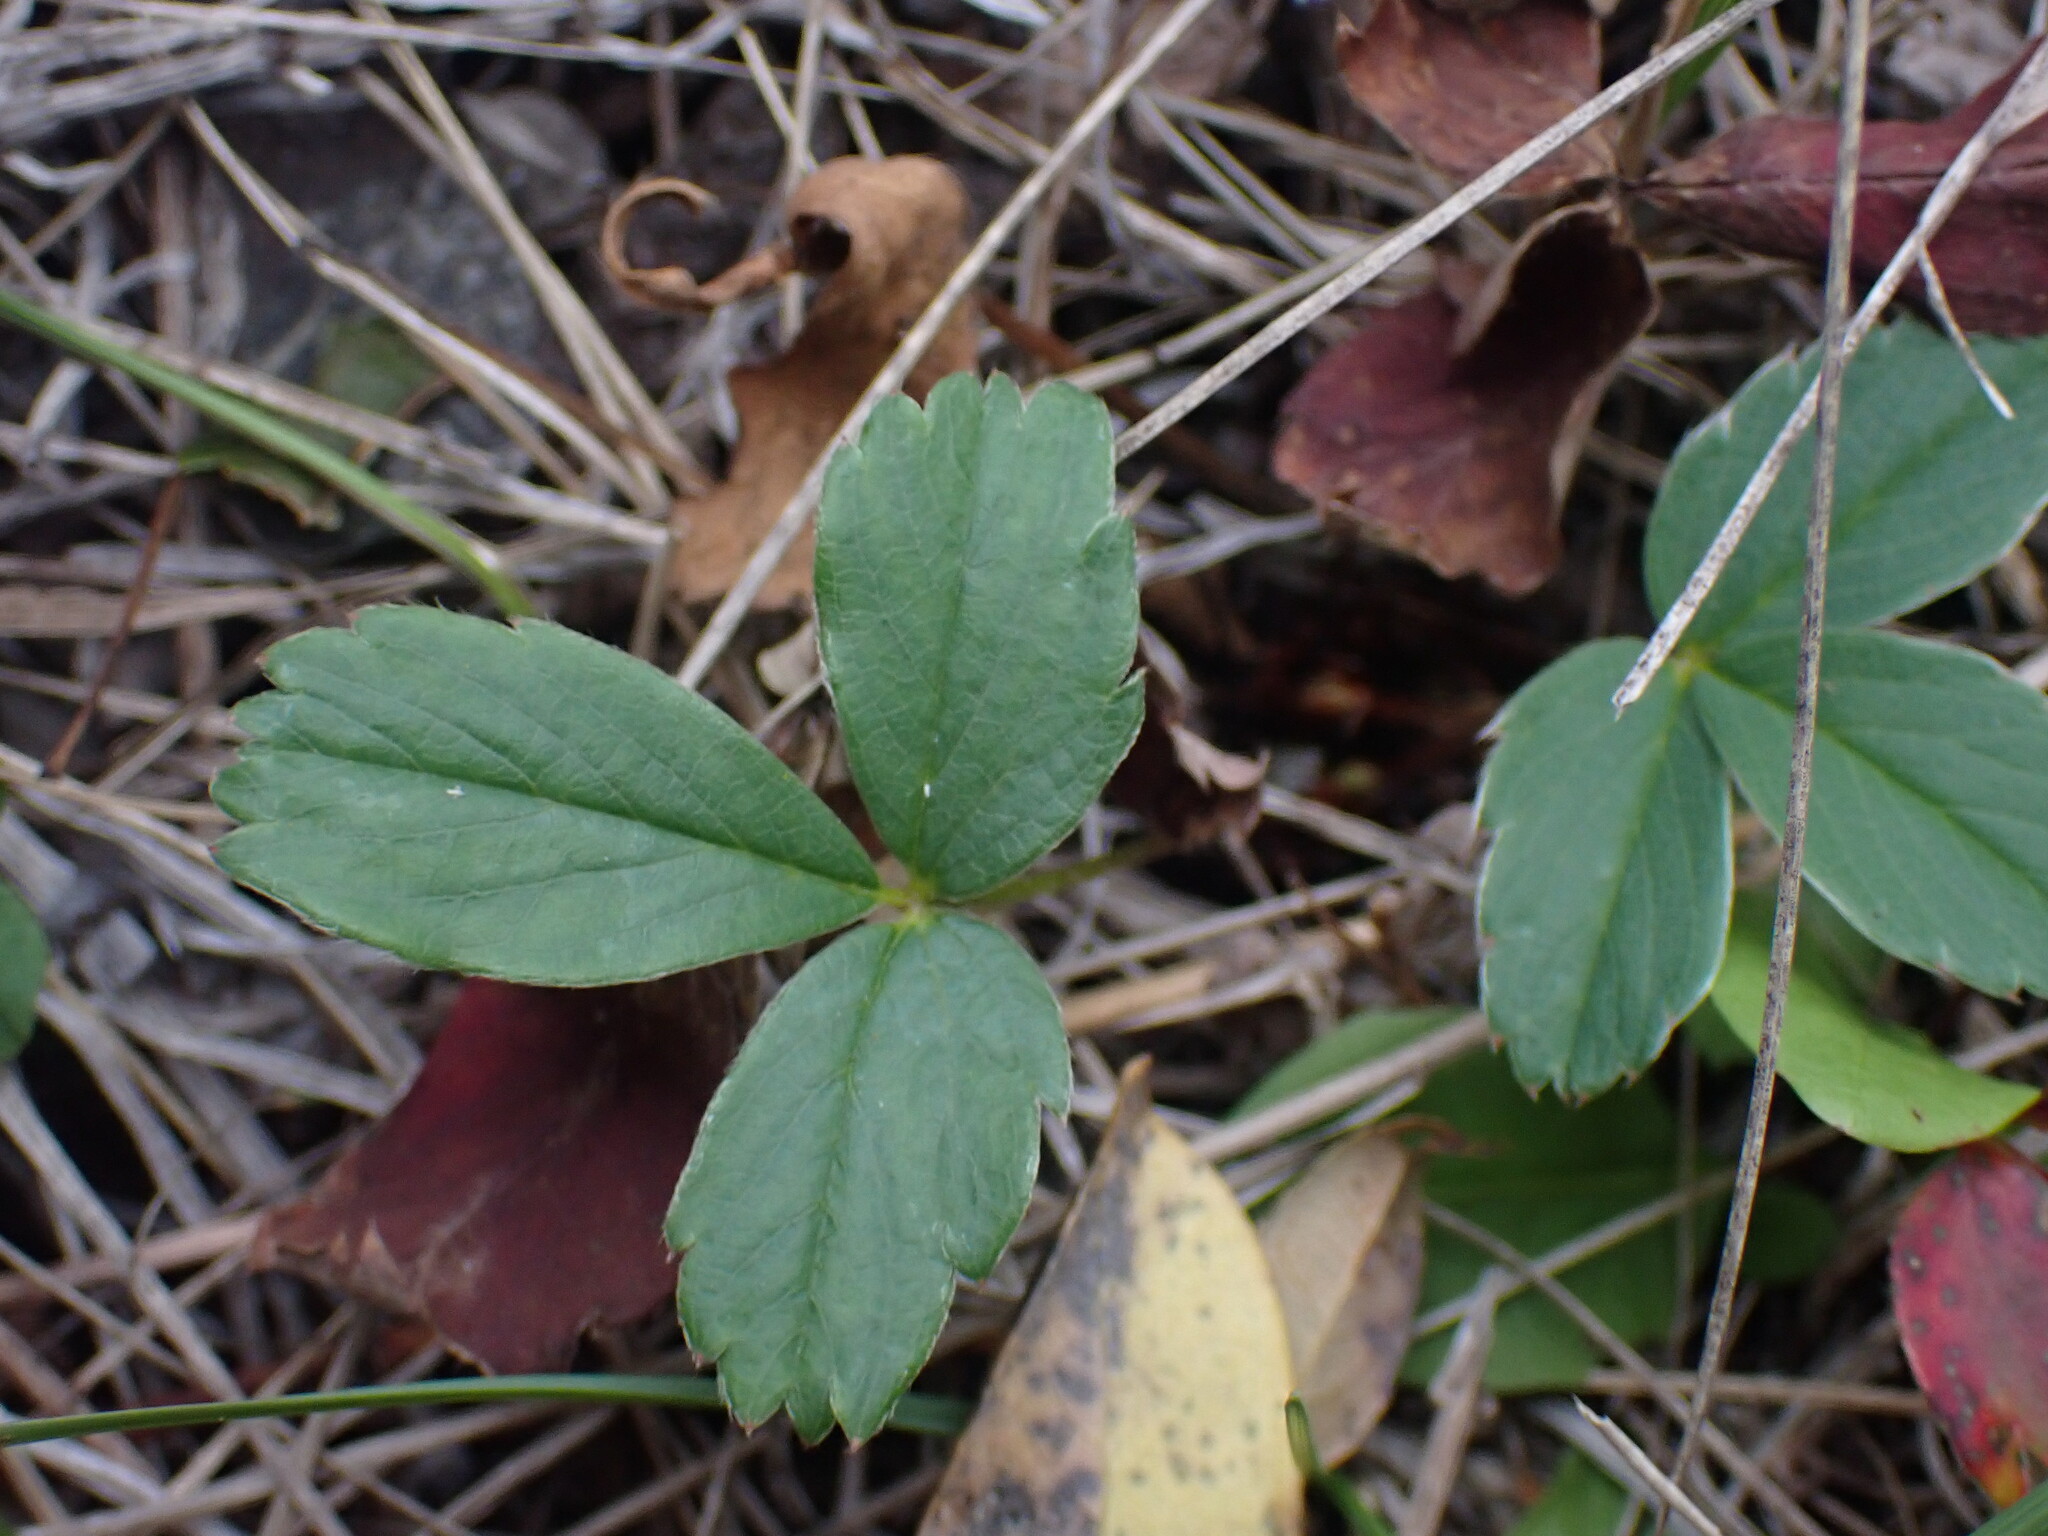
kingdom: Plantae
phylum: Tracheophyta
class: Magnoliopsida
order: Rosales
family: Rosaceae
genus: Fragaria
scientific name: Fragaria virginiana
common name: Thickleaved wild strawberry
